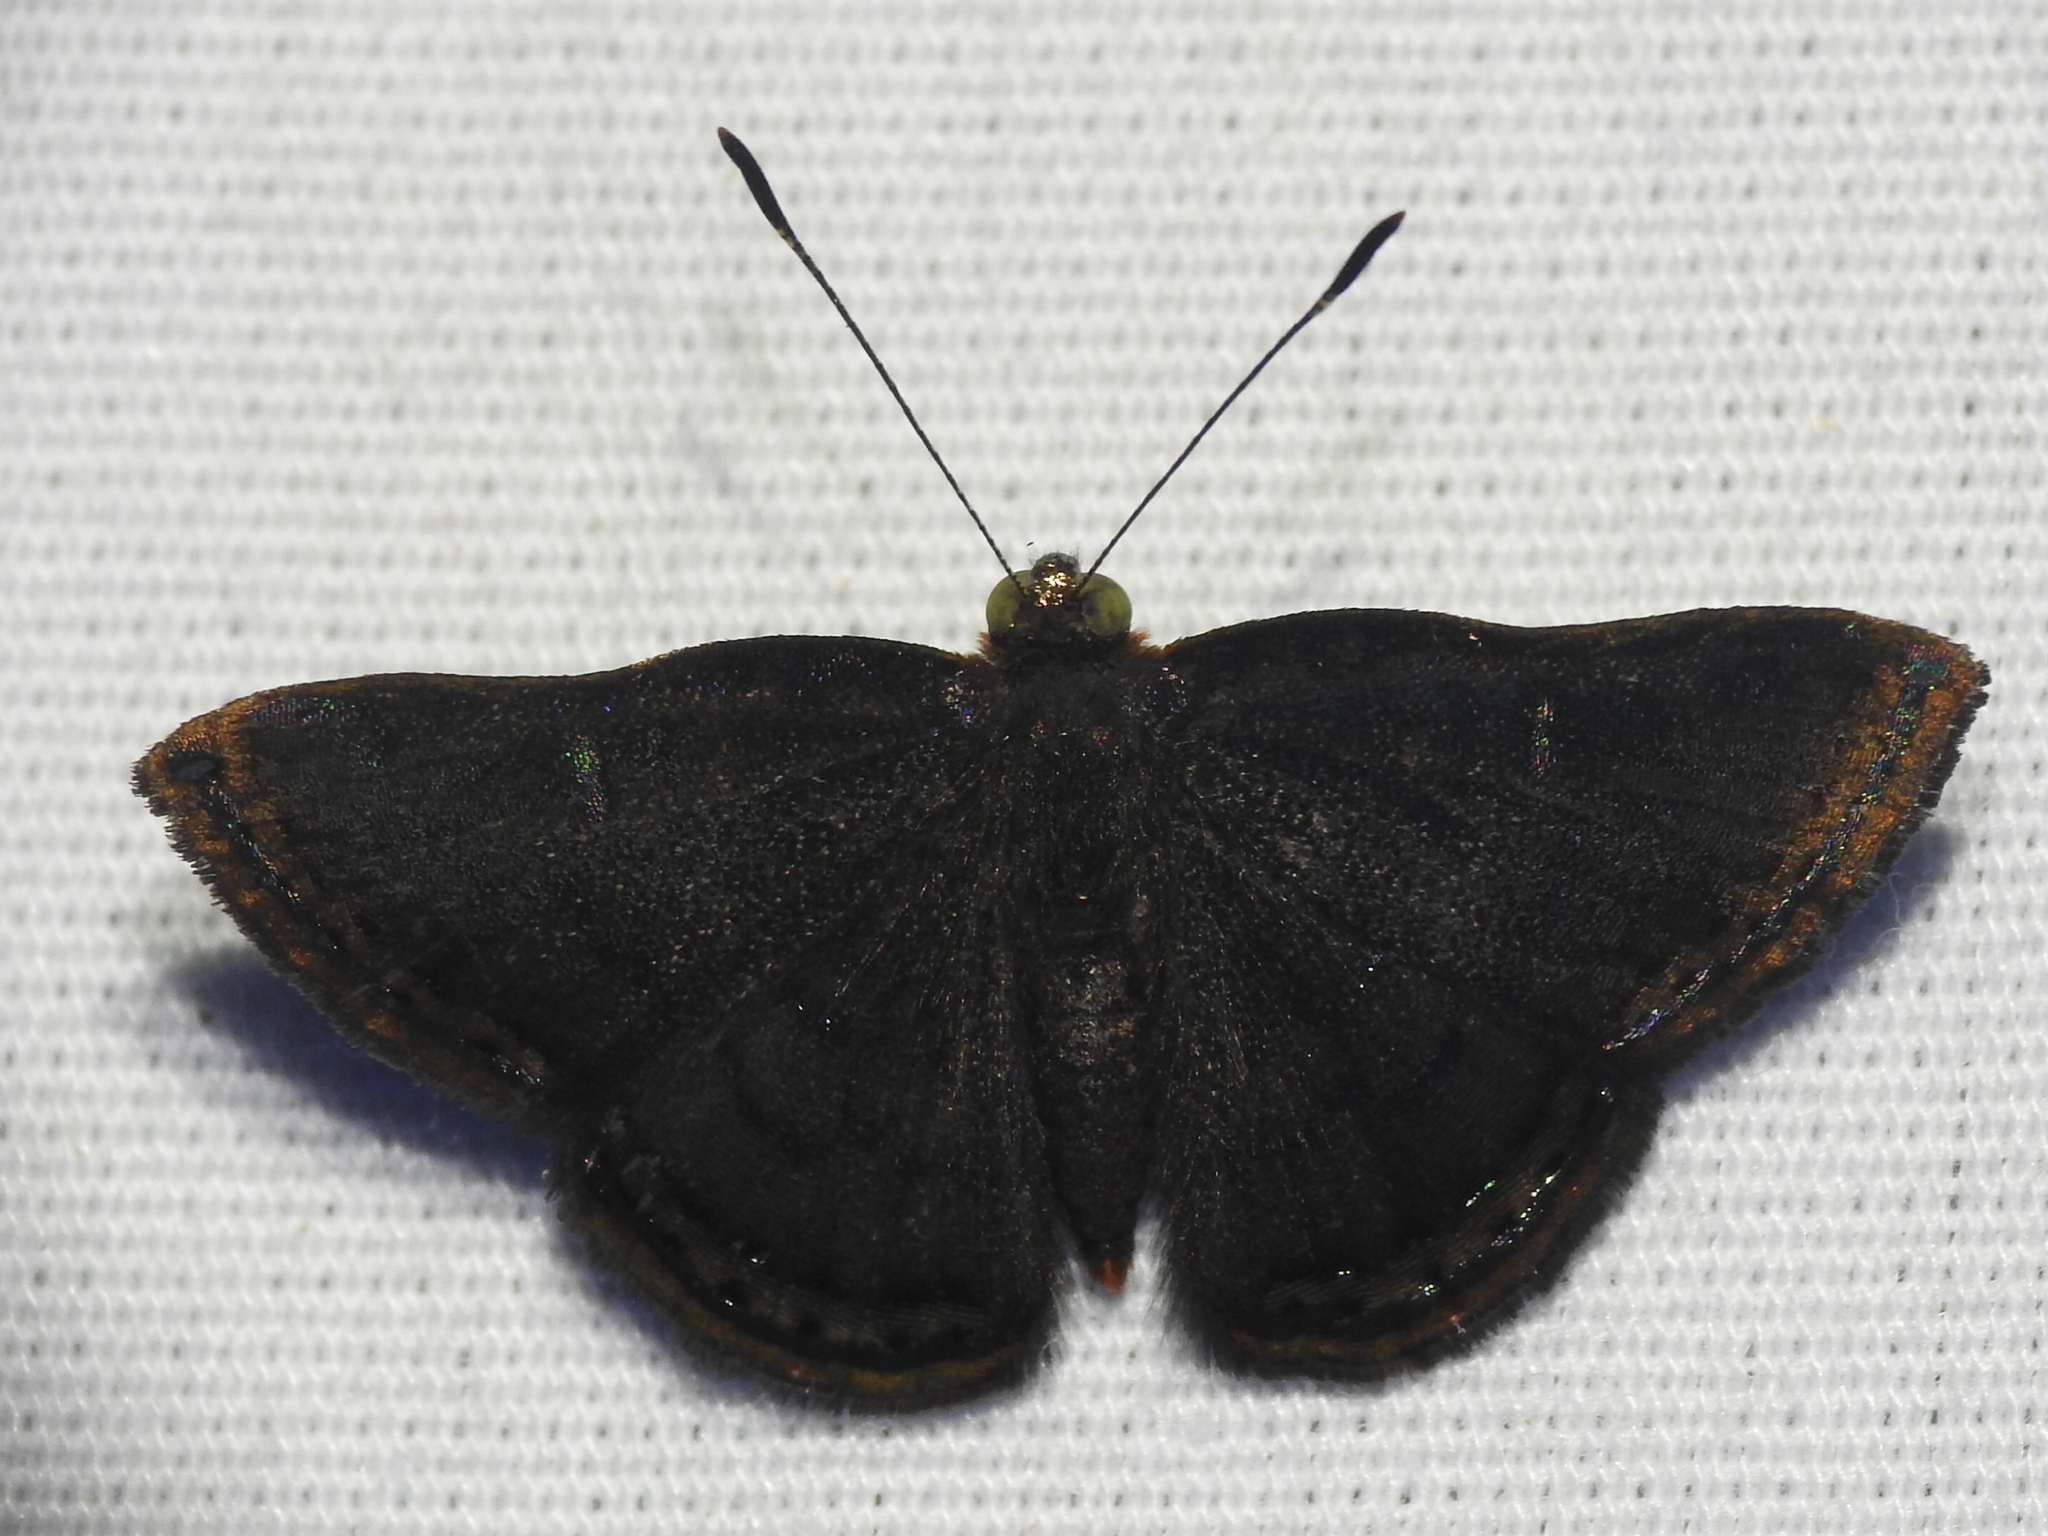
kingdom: Animalia
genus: Caria
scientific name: Caria ino
